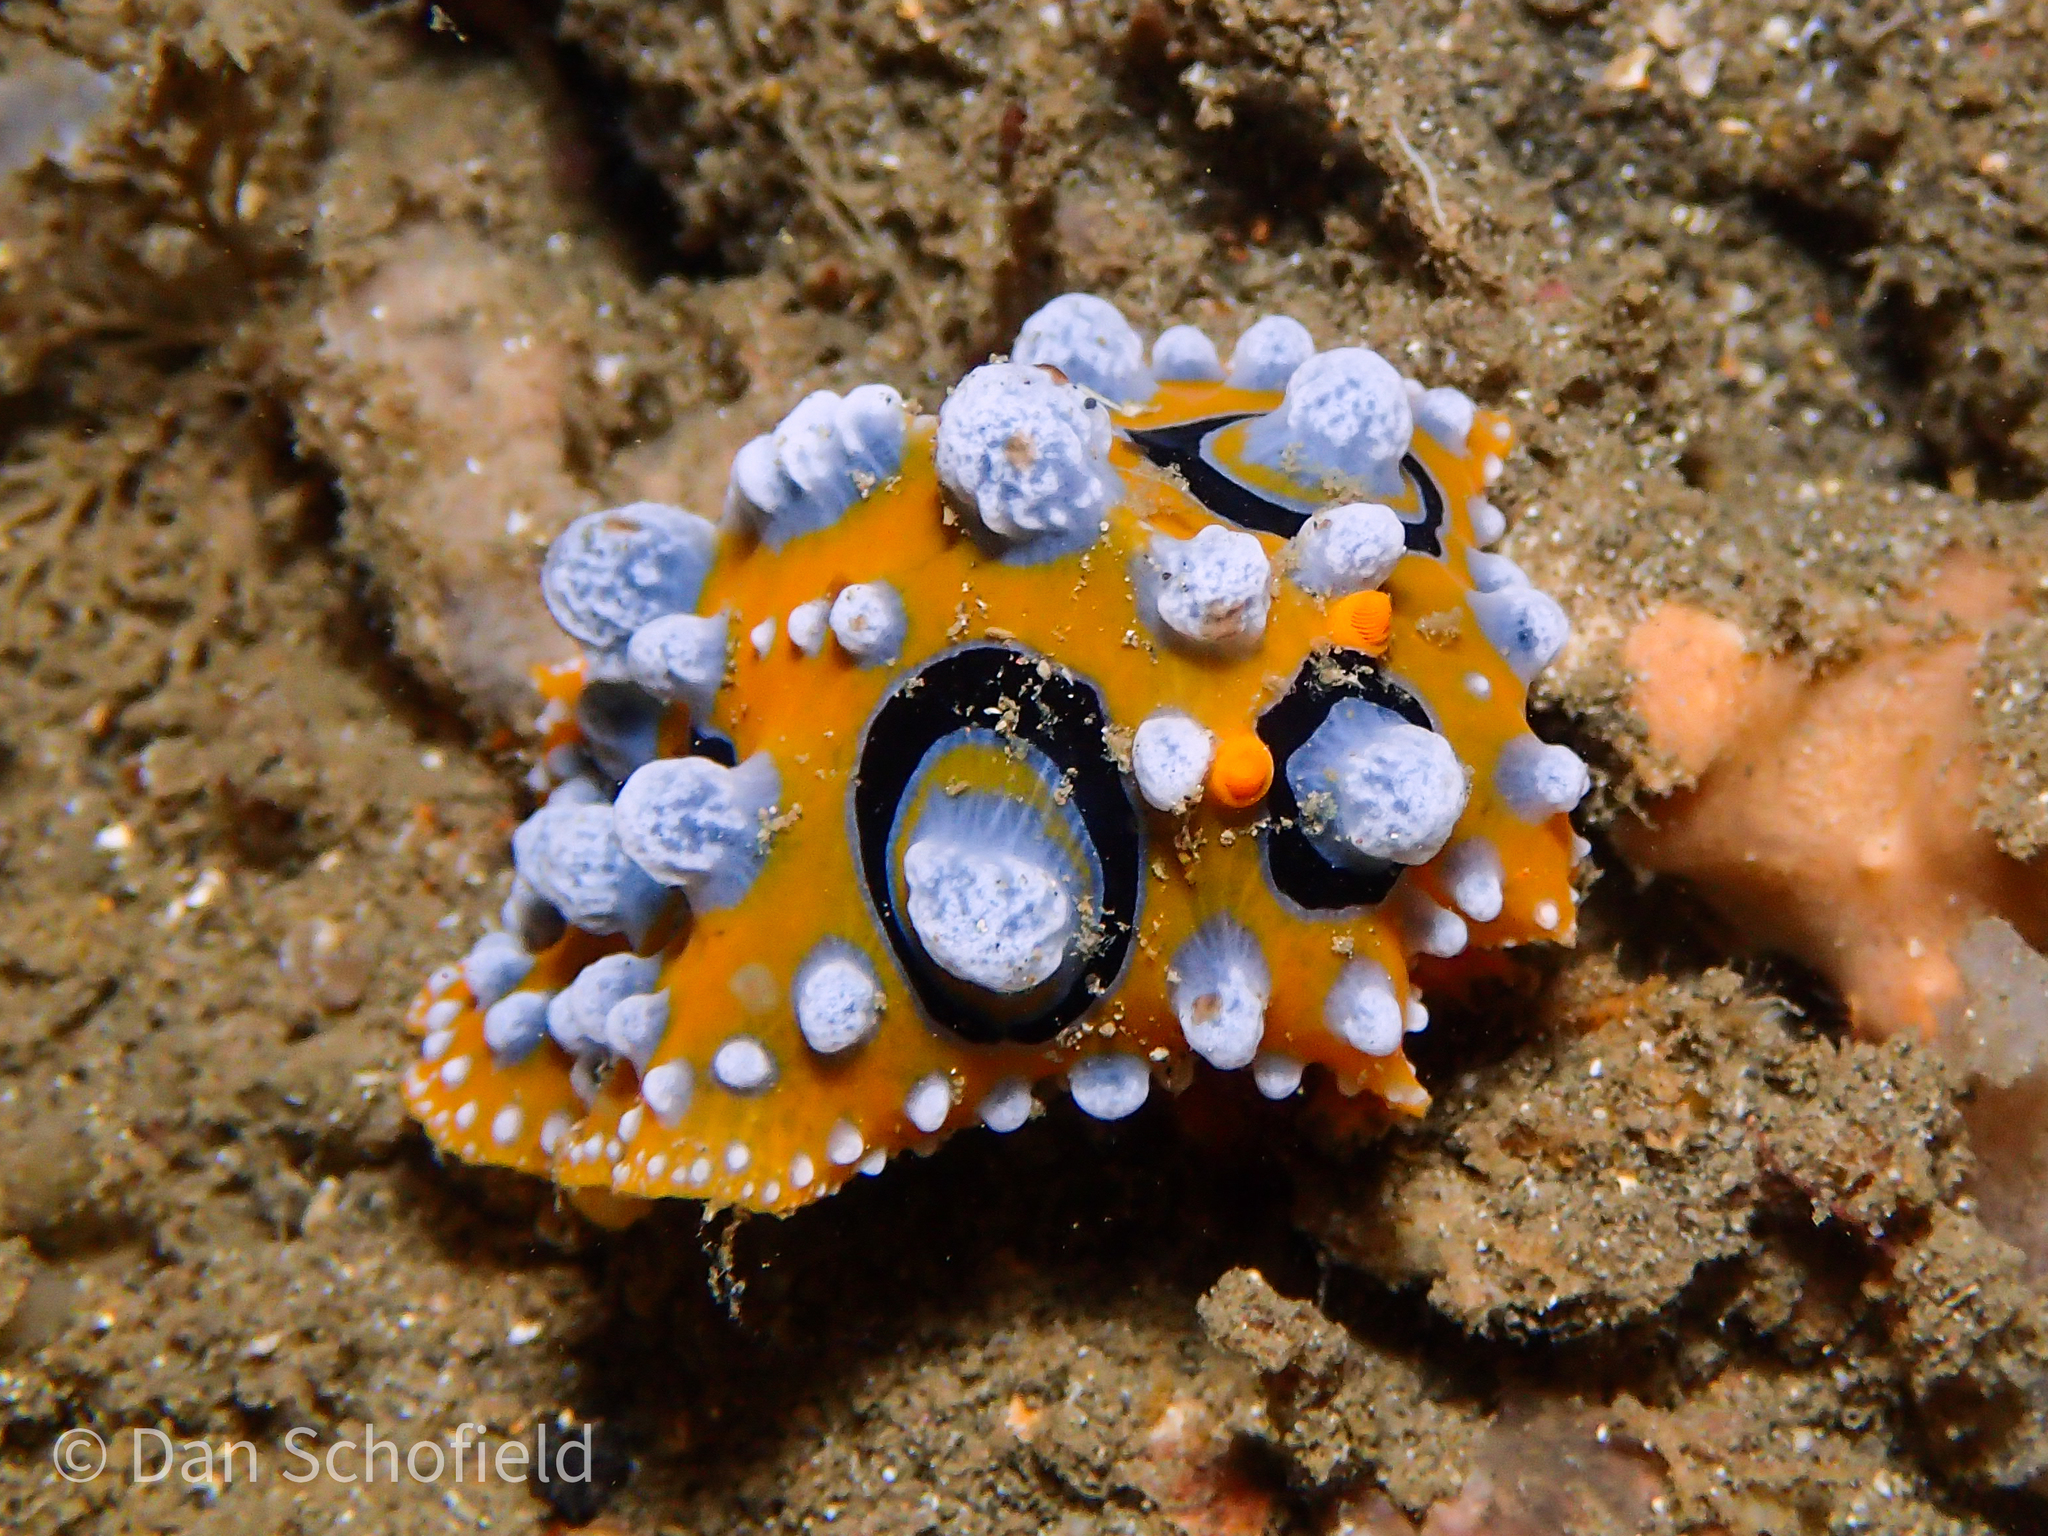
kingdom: Animalia
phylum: Mollusca
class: Gastropoda
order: Nudibranchia
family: Phyllidiidae
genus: Phyllidia
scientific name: Phyllidia ocellata
